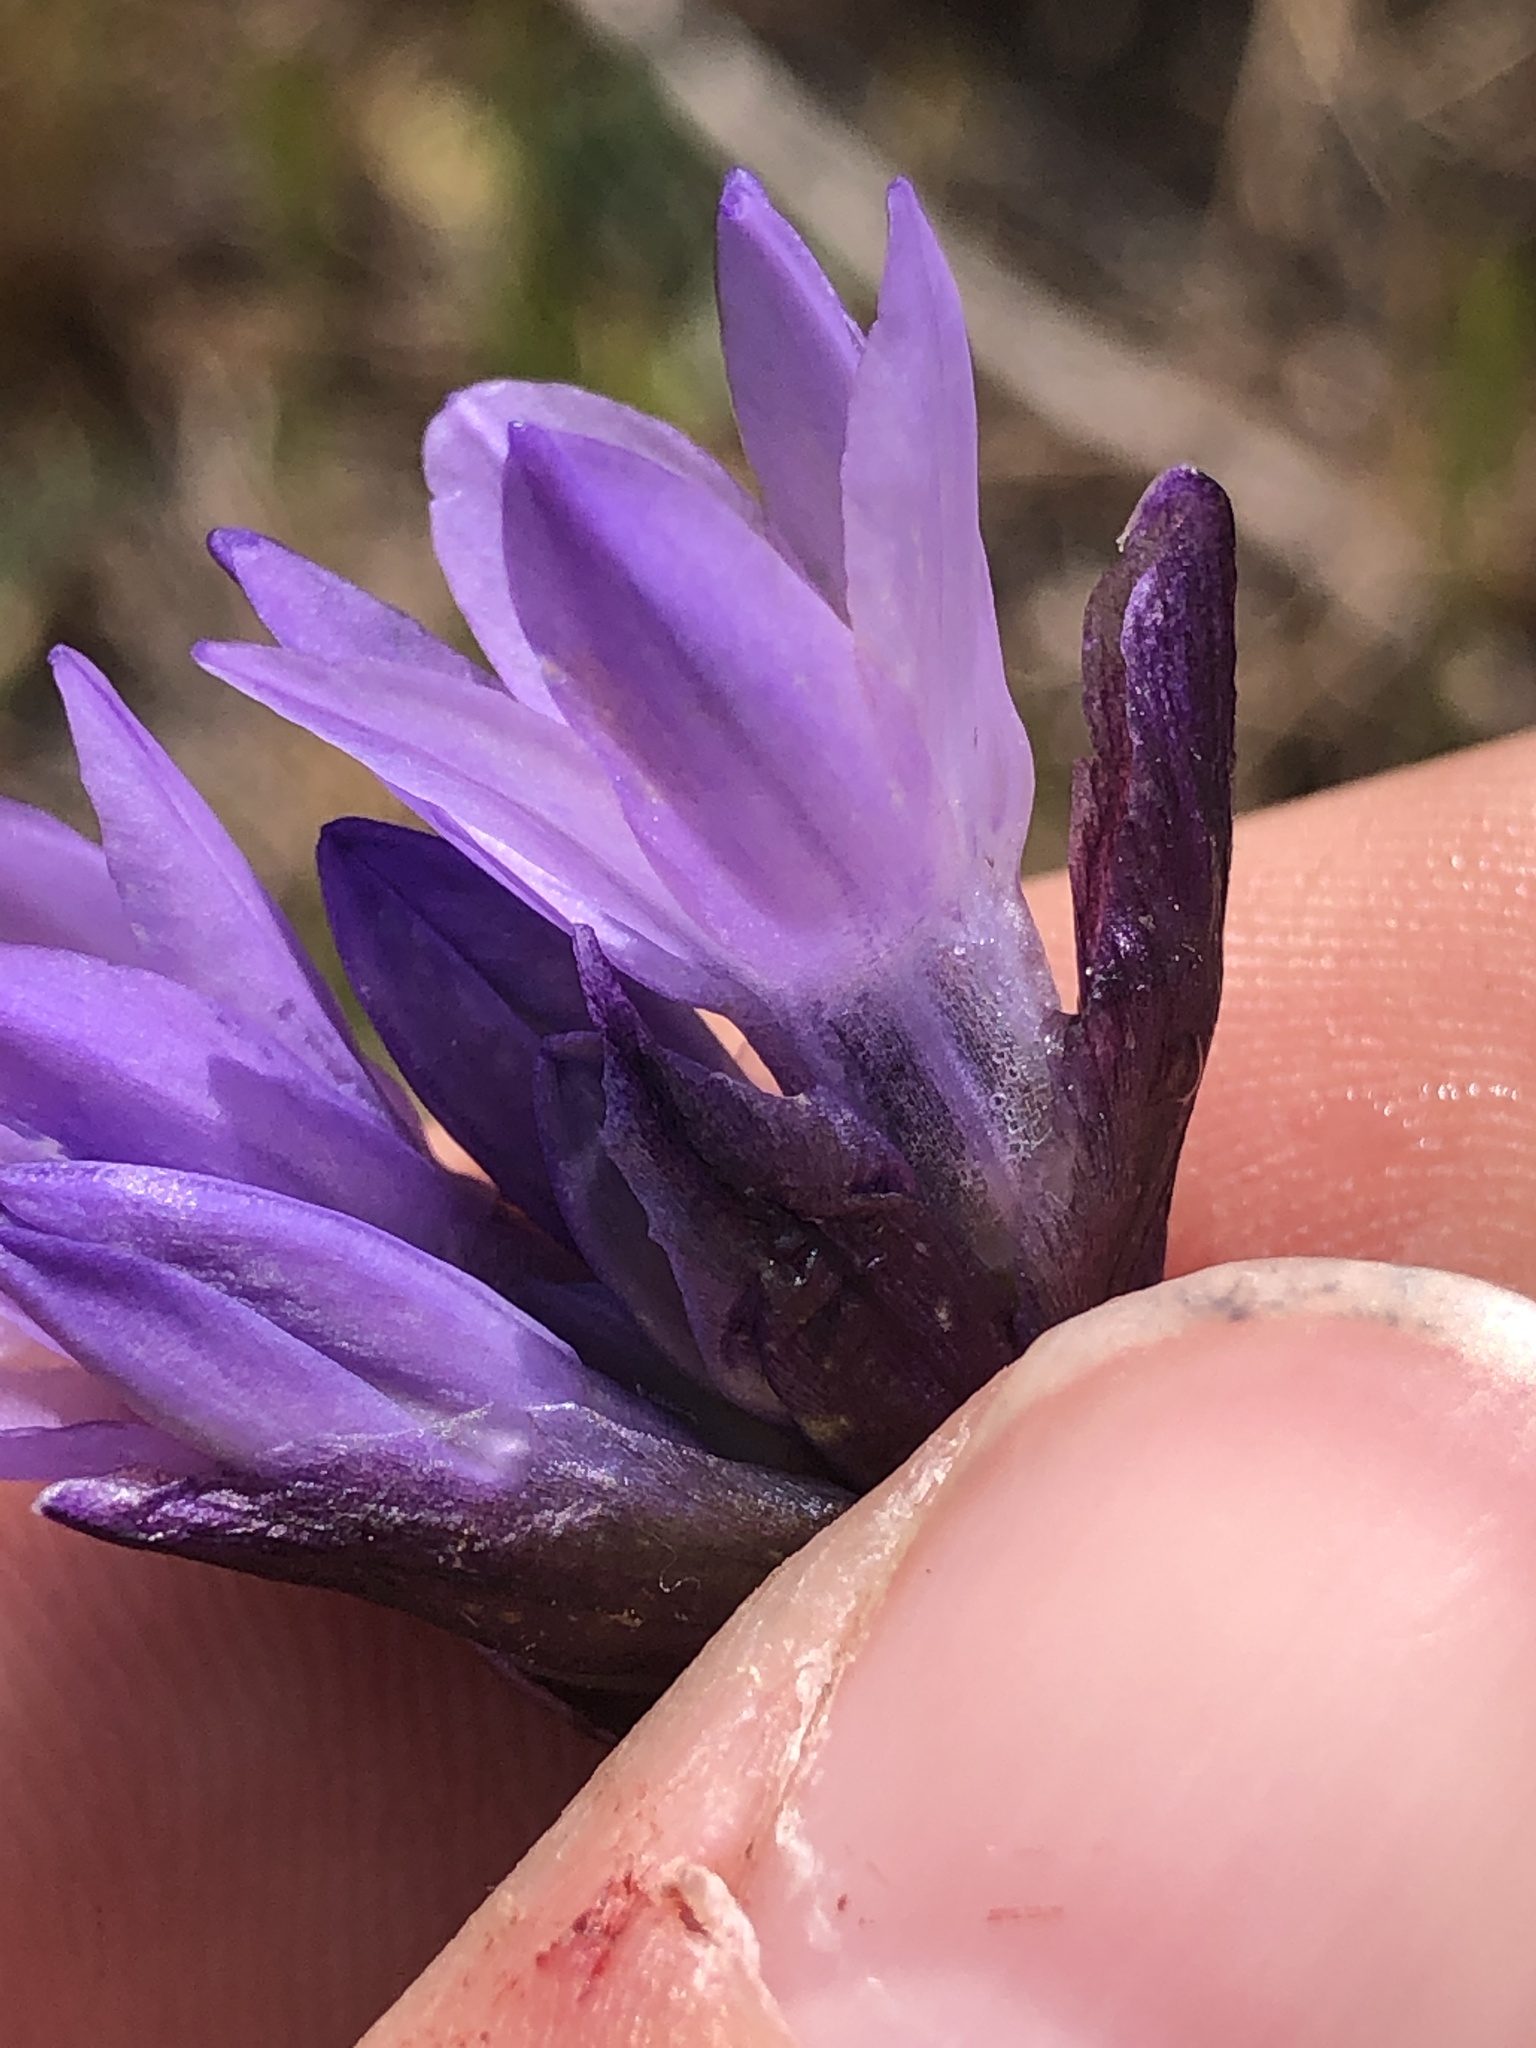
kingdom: Plantae
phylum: Tracheophyta
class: Liliopsida
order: Asparagales
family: Asparagaceae
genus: Dipterostemon
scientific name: Dipterostemon capitatus
